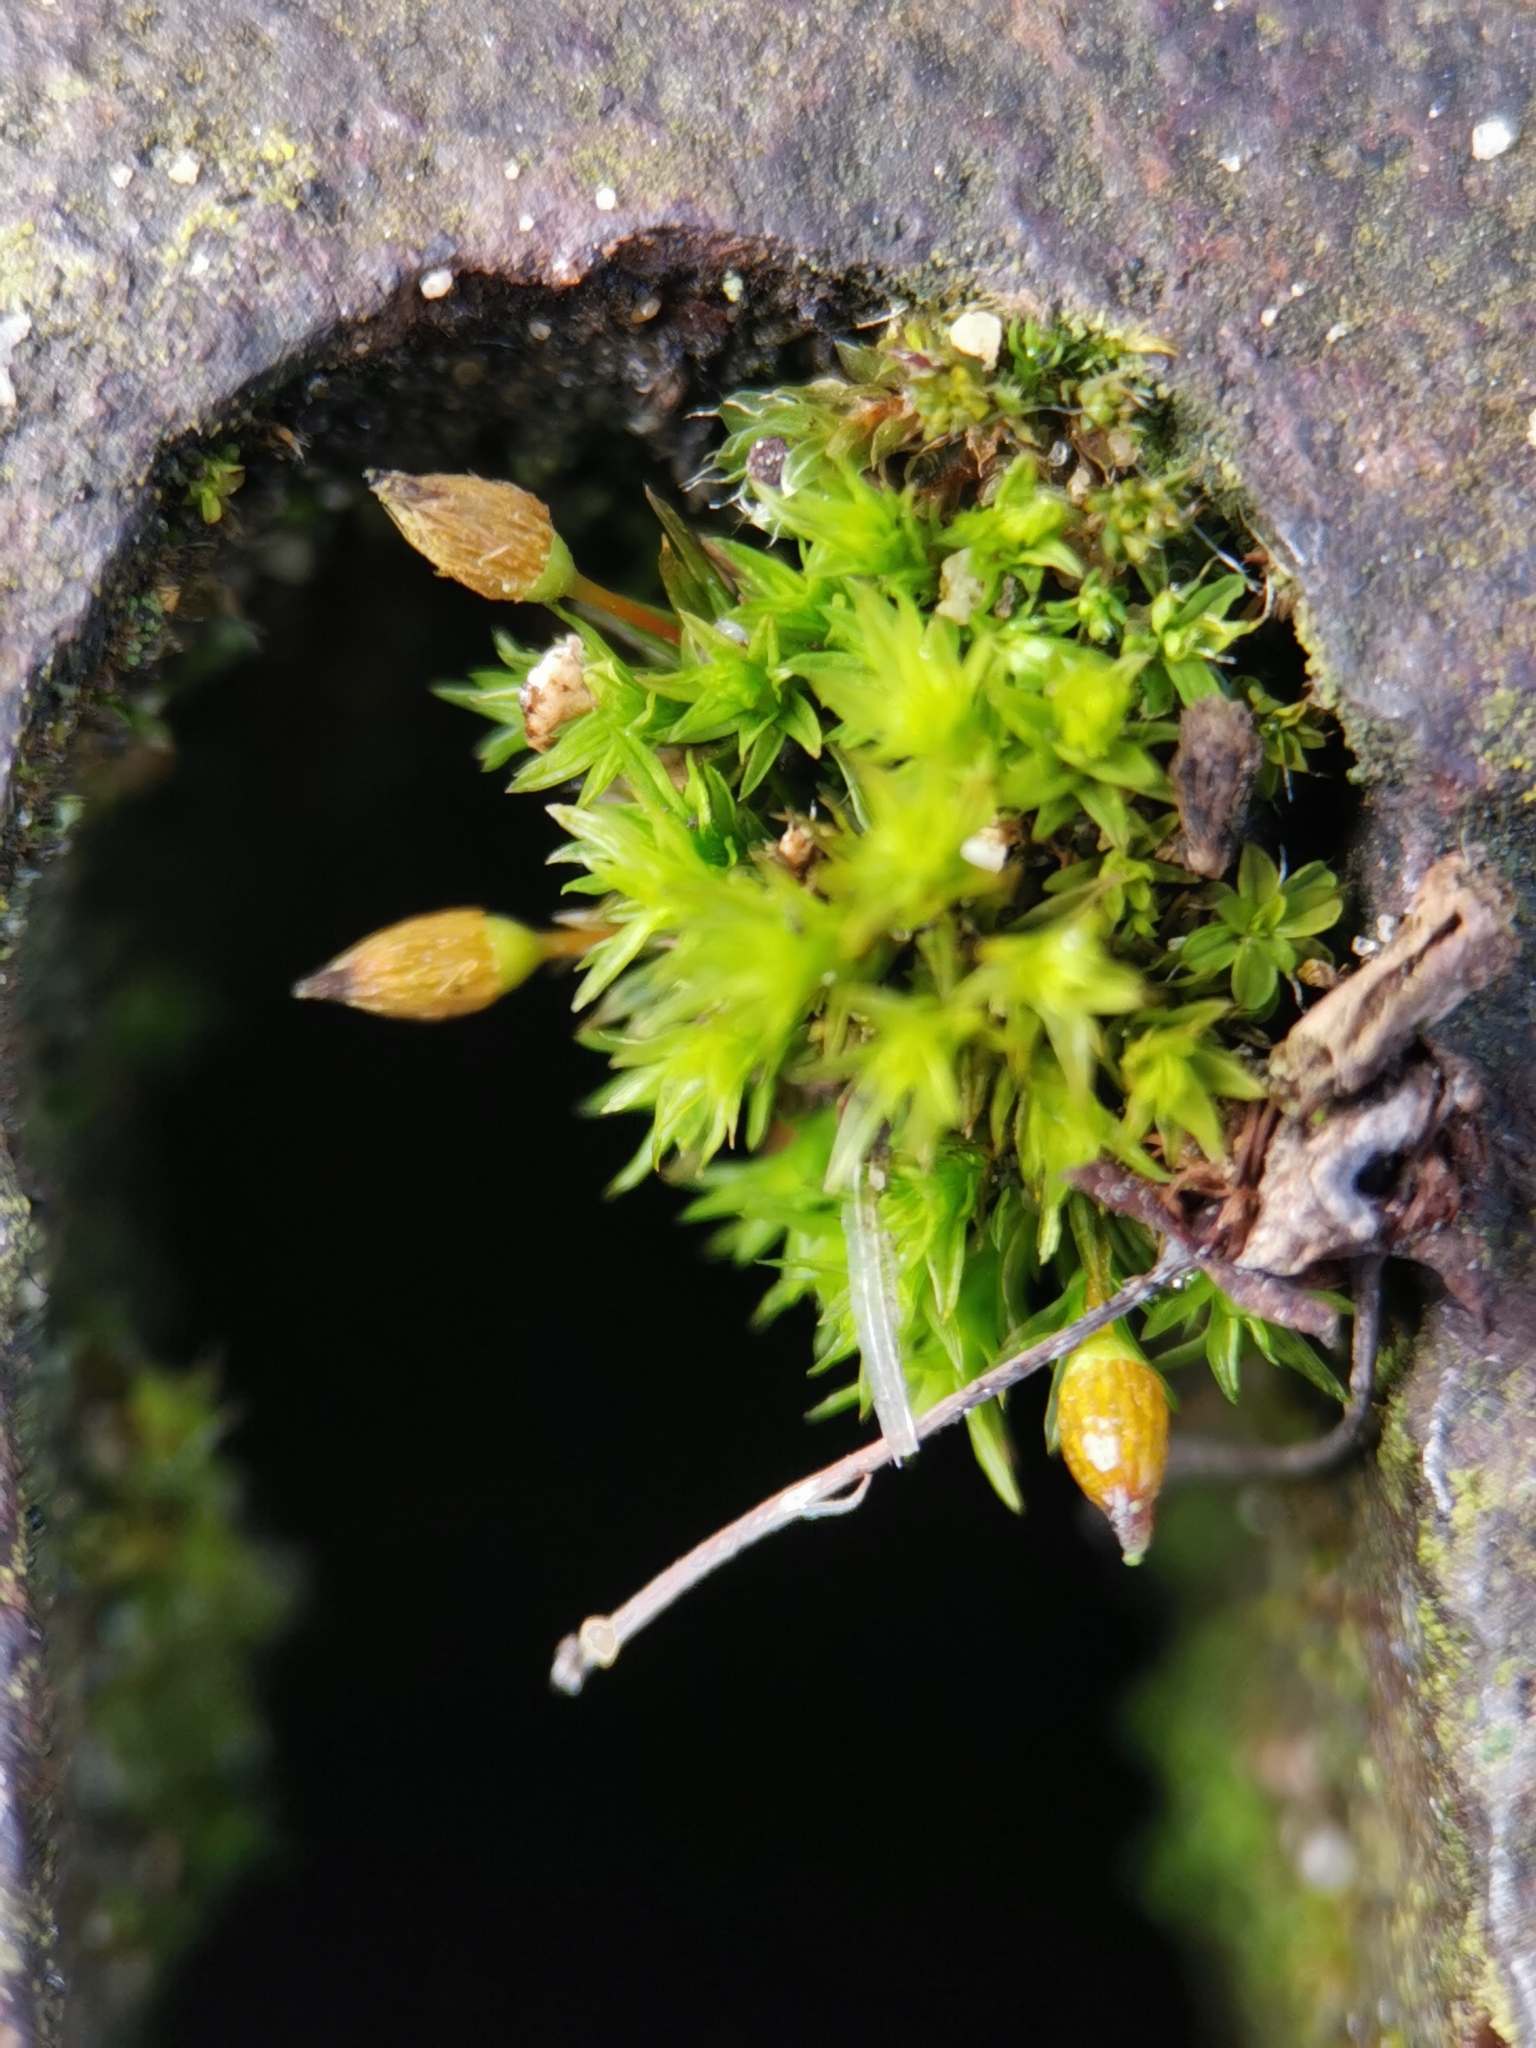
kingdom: Plantae
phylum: Bryophyta
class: Bryopsida
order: Orthotrichales
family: Orthotrichaceae
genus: Orthotrichum
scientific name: Orthotrichum anomalum
